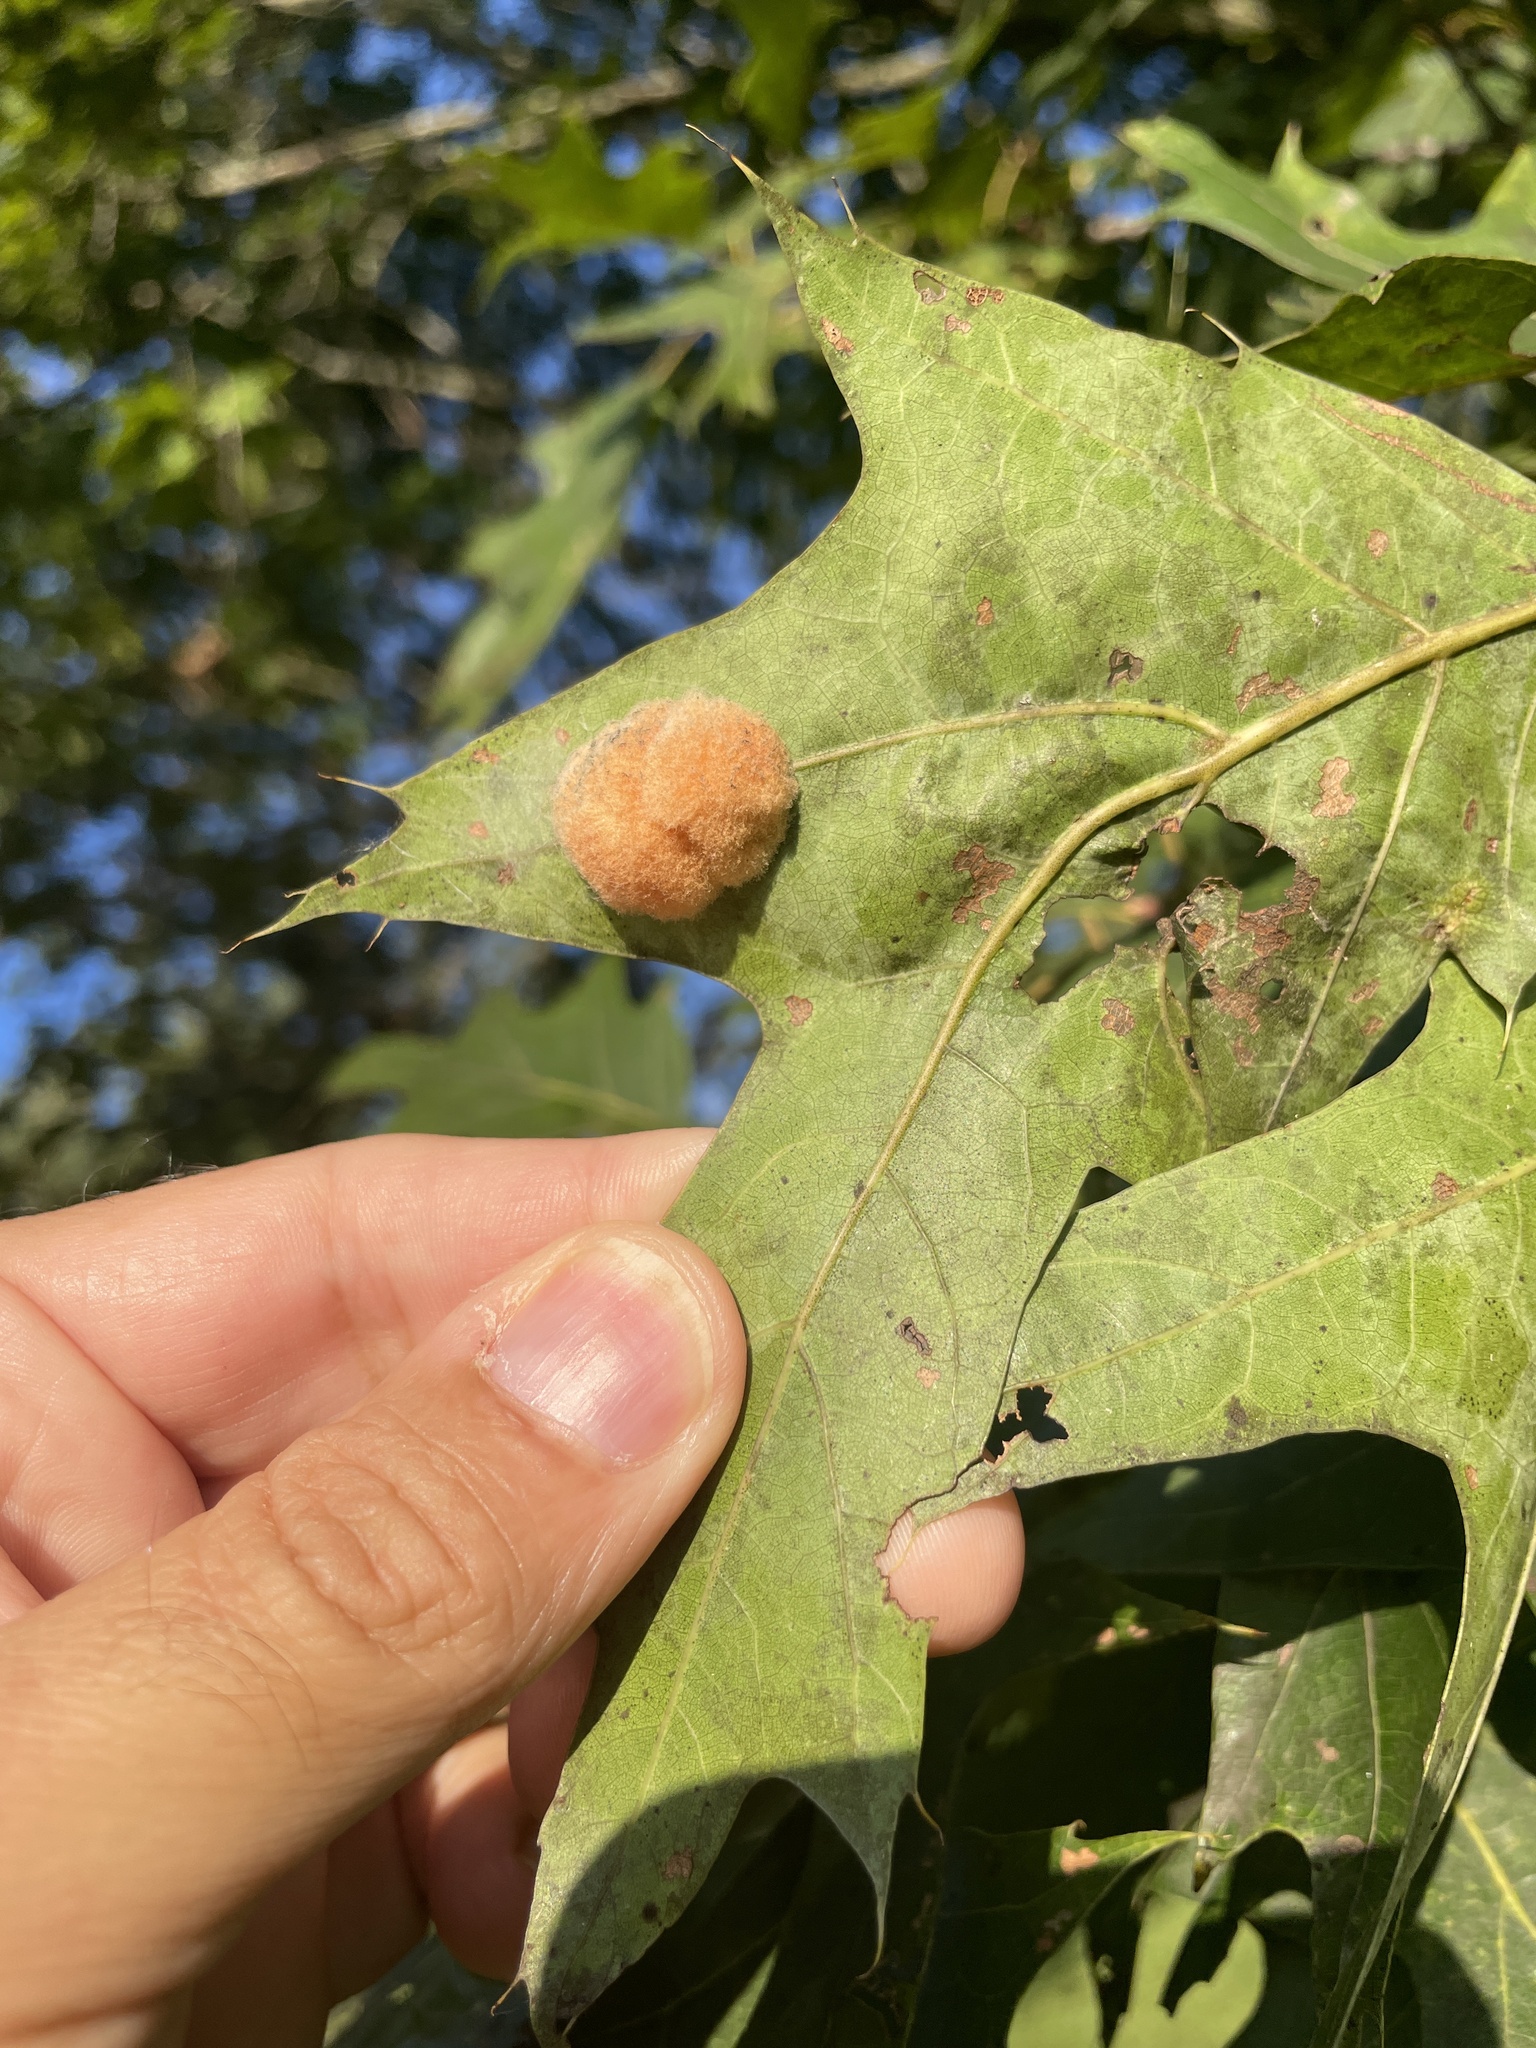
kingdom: Animalia
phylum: Arthropoda
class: Insecta
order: Hymenoptera
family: Cynipidae
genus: Callirhytis
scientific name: Callirhytis
